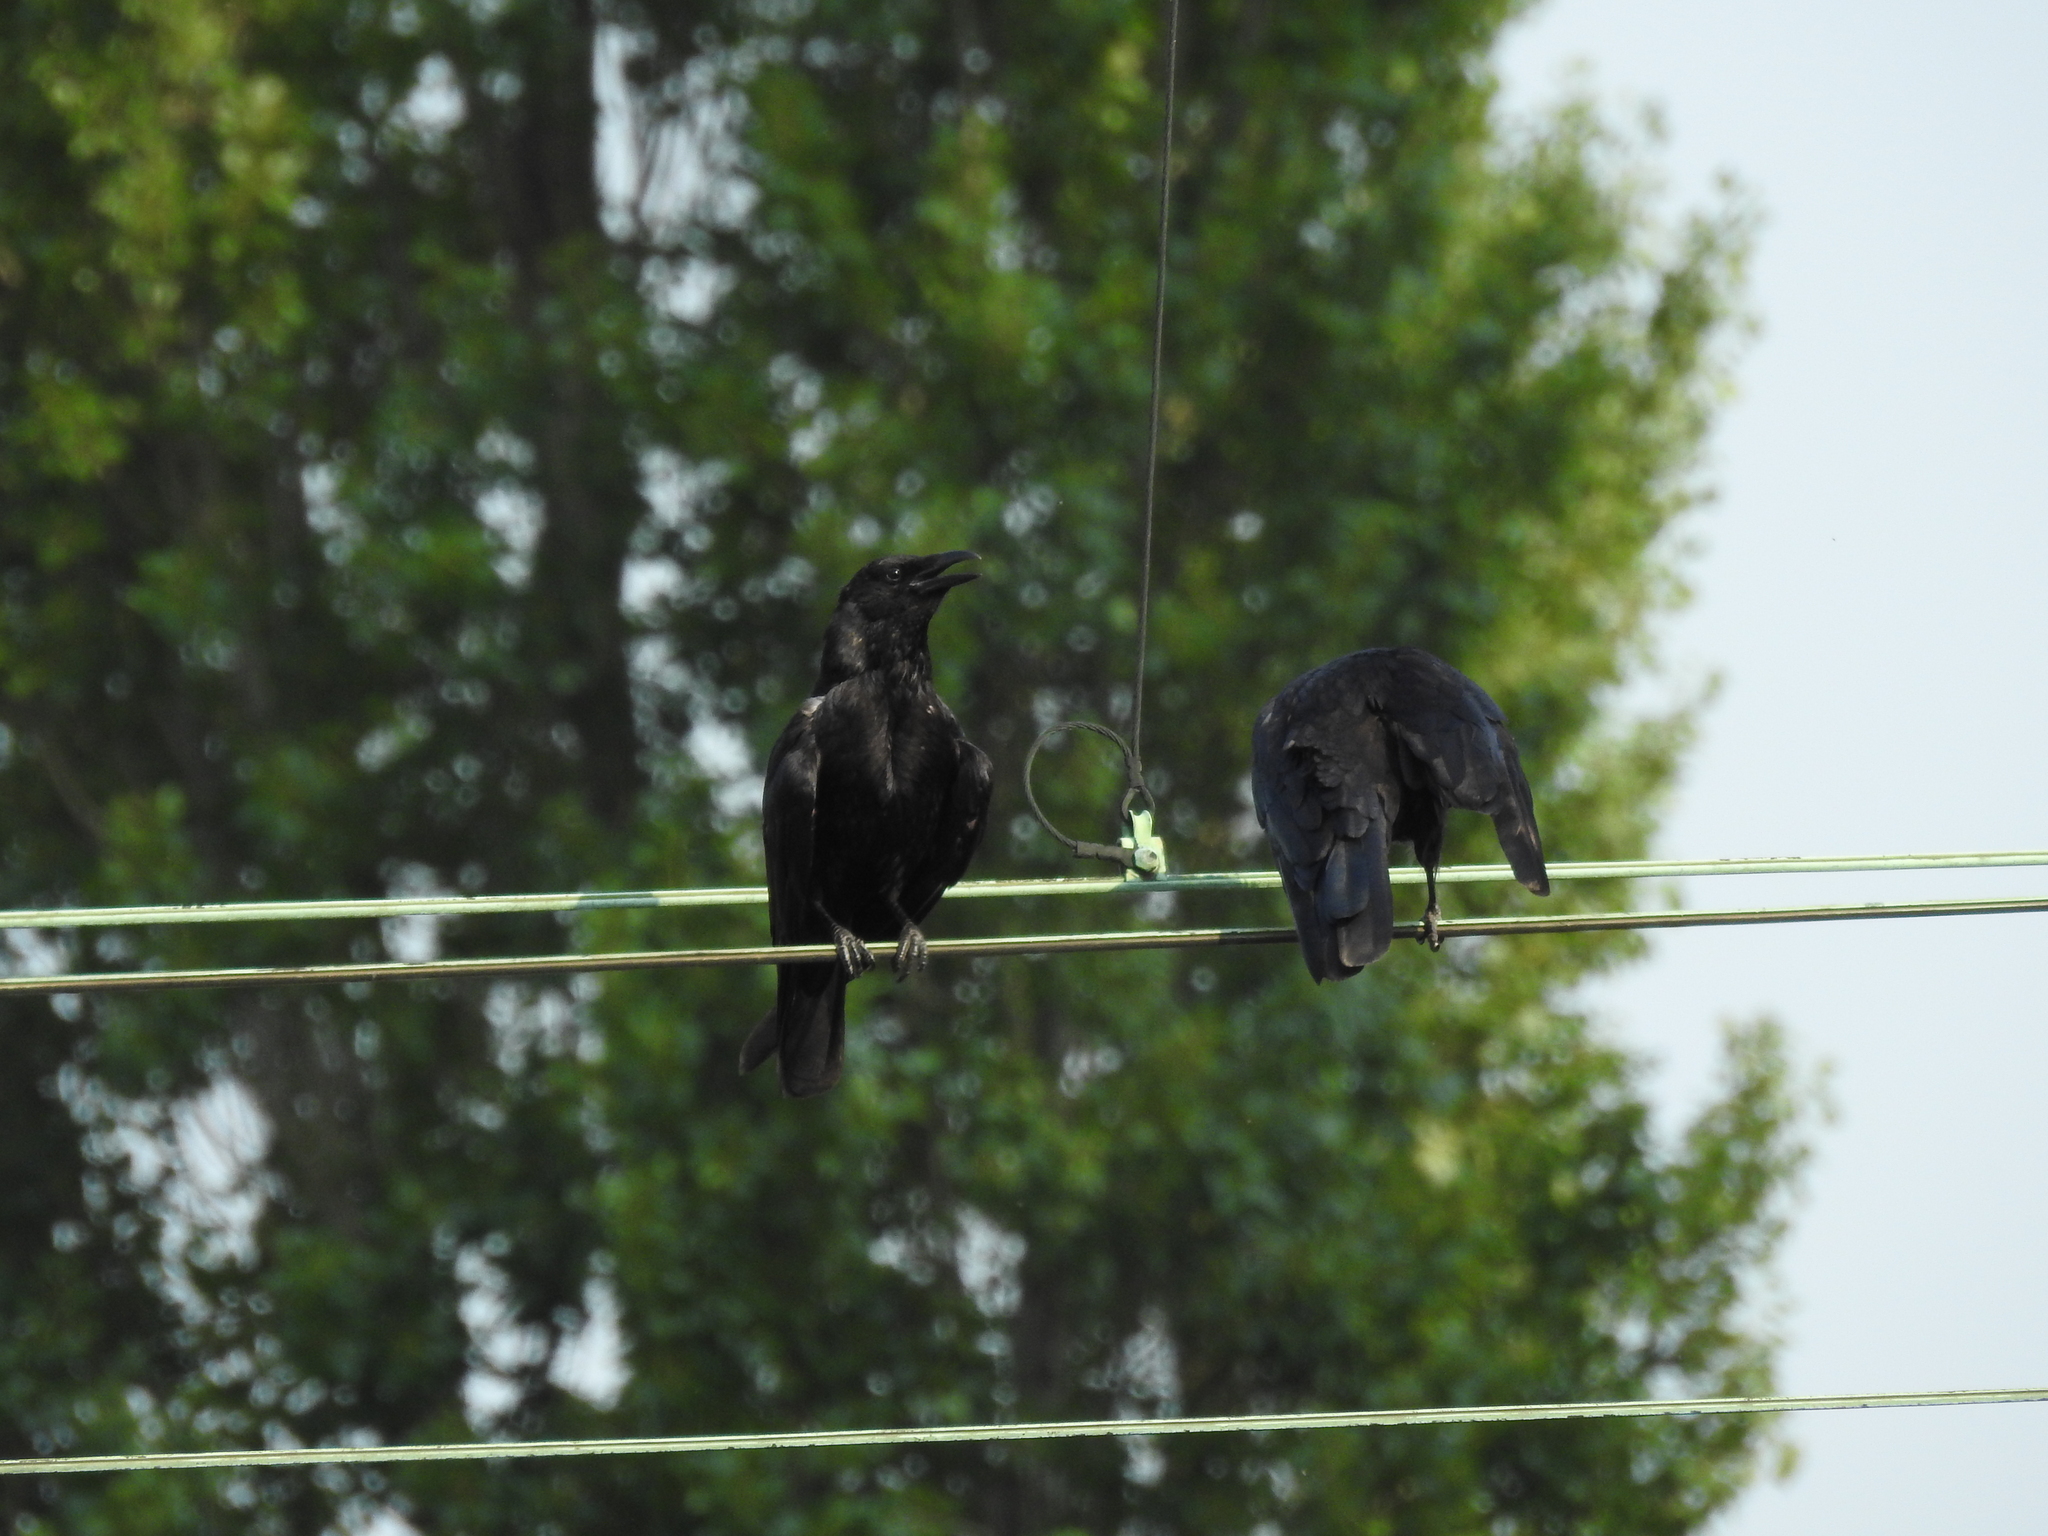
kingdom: Animalia
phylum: Chordata
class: Aves
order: Passeriformes
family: Corvidae
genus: Corvus
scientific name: Corvus corone
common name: Carrion crow
